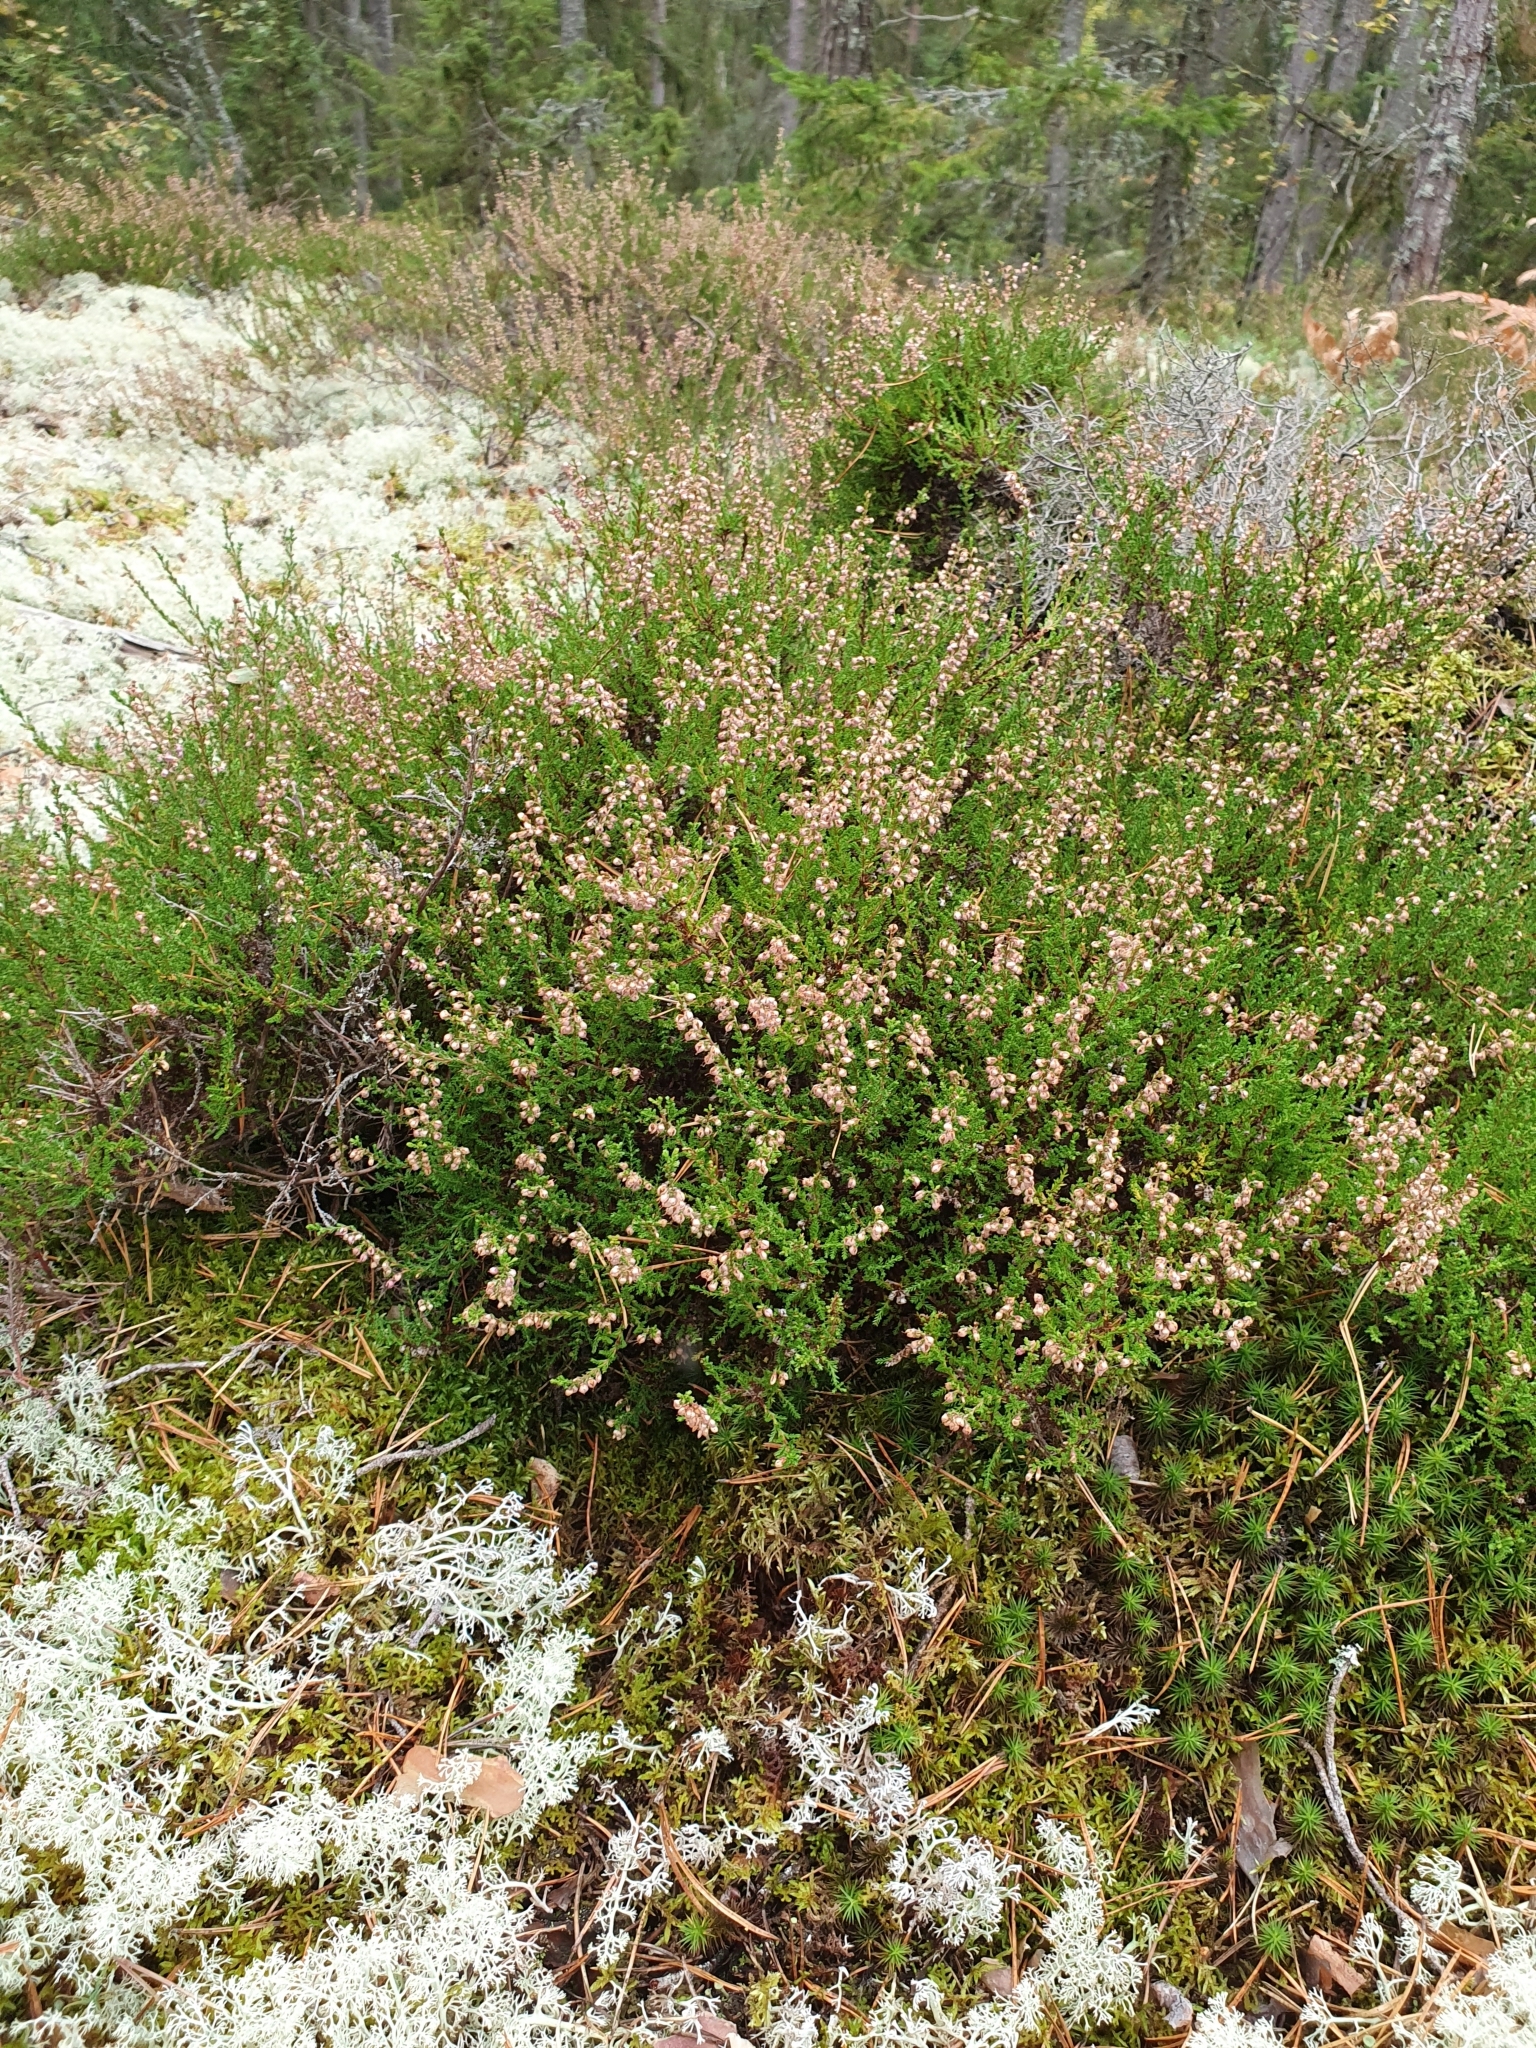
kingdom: Plantae
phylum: Tracheophyta
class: Magnoliopsida
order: Ericales
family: Ericaceae
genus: Calluna
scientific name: Calluna vulgaris
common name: Heather
